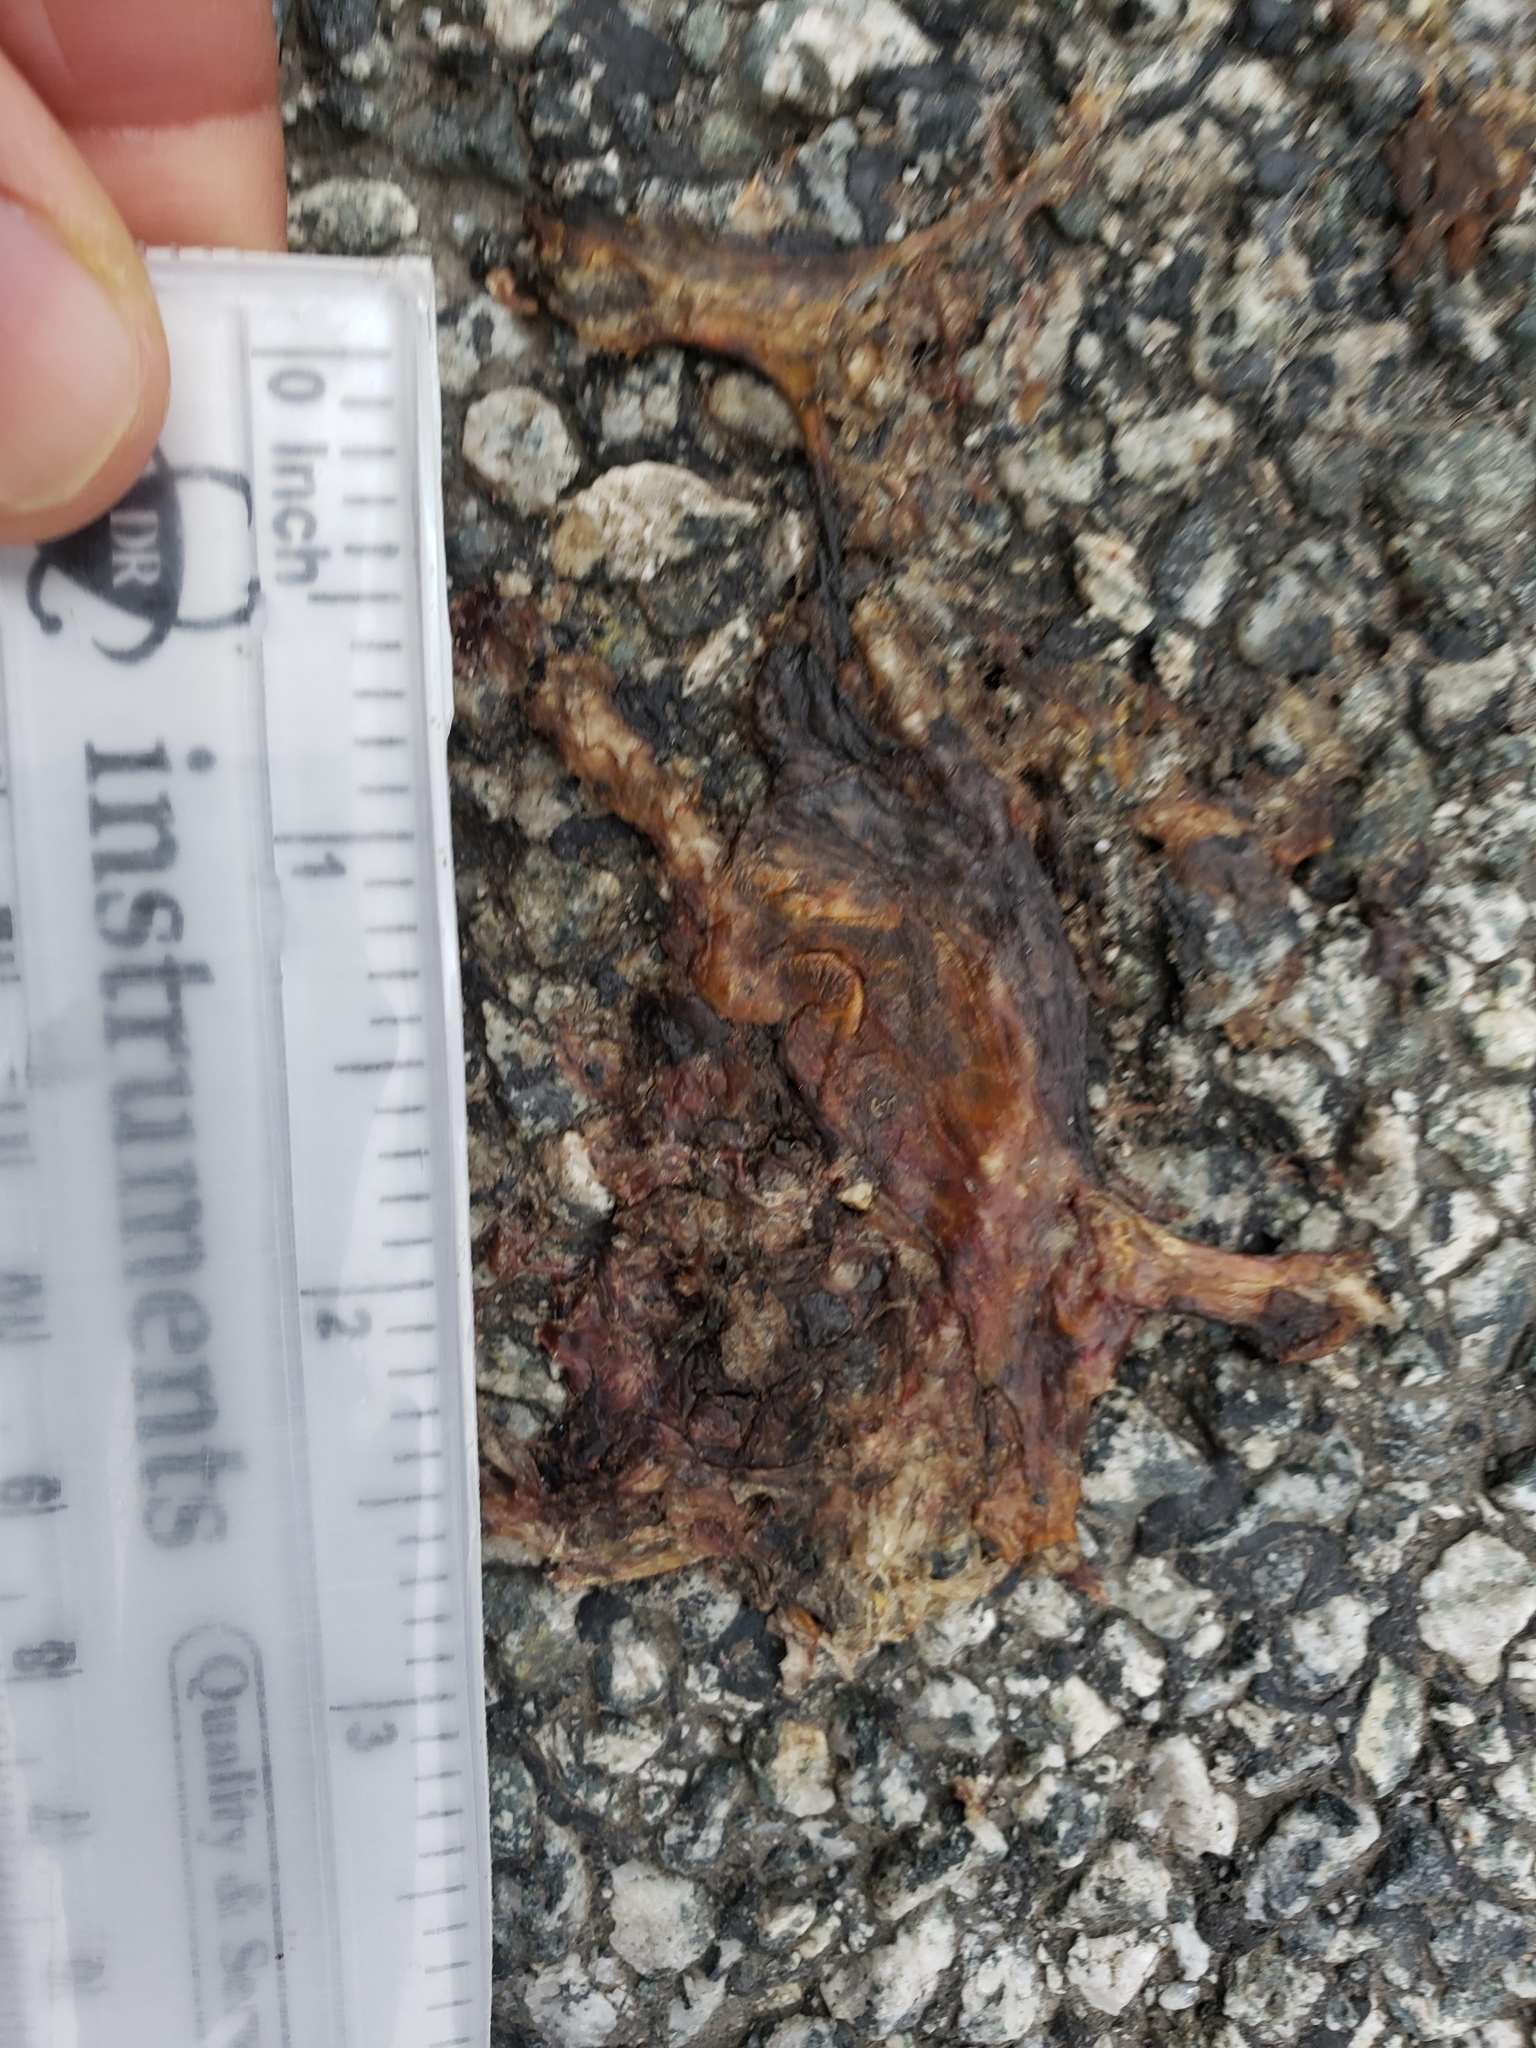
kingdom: Animalia
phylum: Chordata
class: Amphibia
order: Caudata
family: Salamandridae
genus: Taricha
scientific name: Taricha
